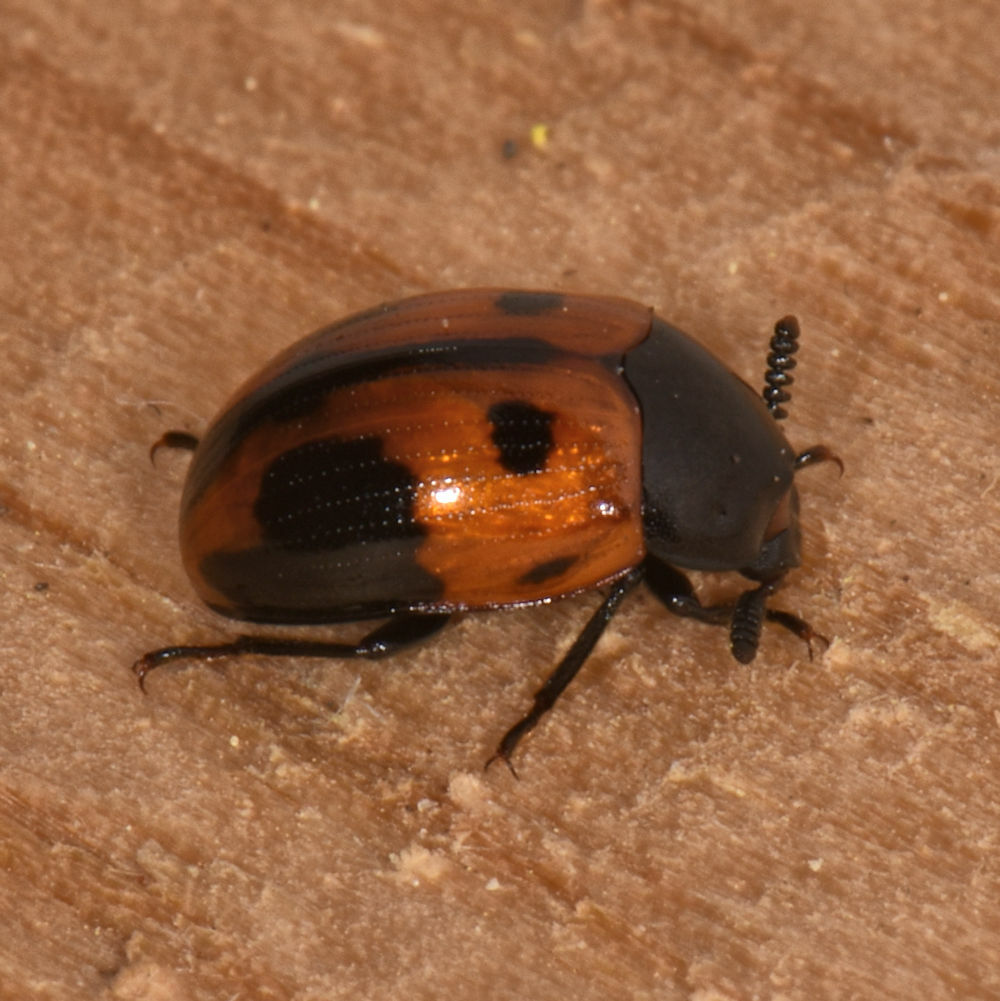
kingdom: Animalia
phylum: Arthropoda
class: Insecta
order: Coleoptera
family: Tenebrionidae
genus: Diaperis
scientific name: Diaperis maculata
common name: Darkling beetle
